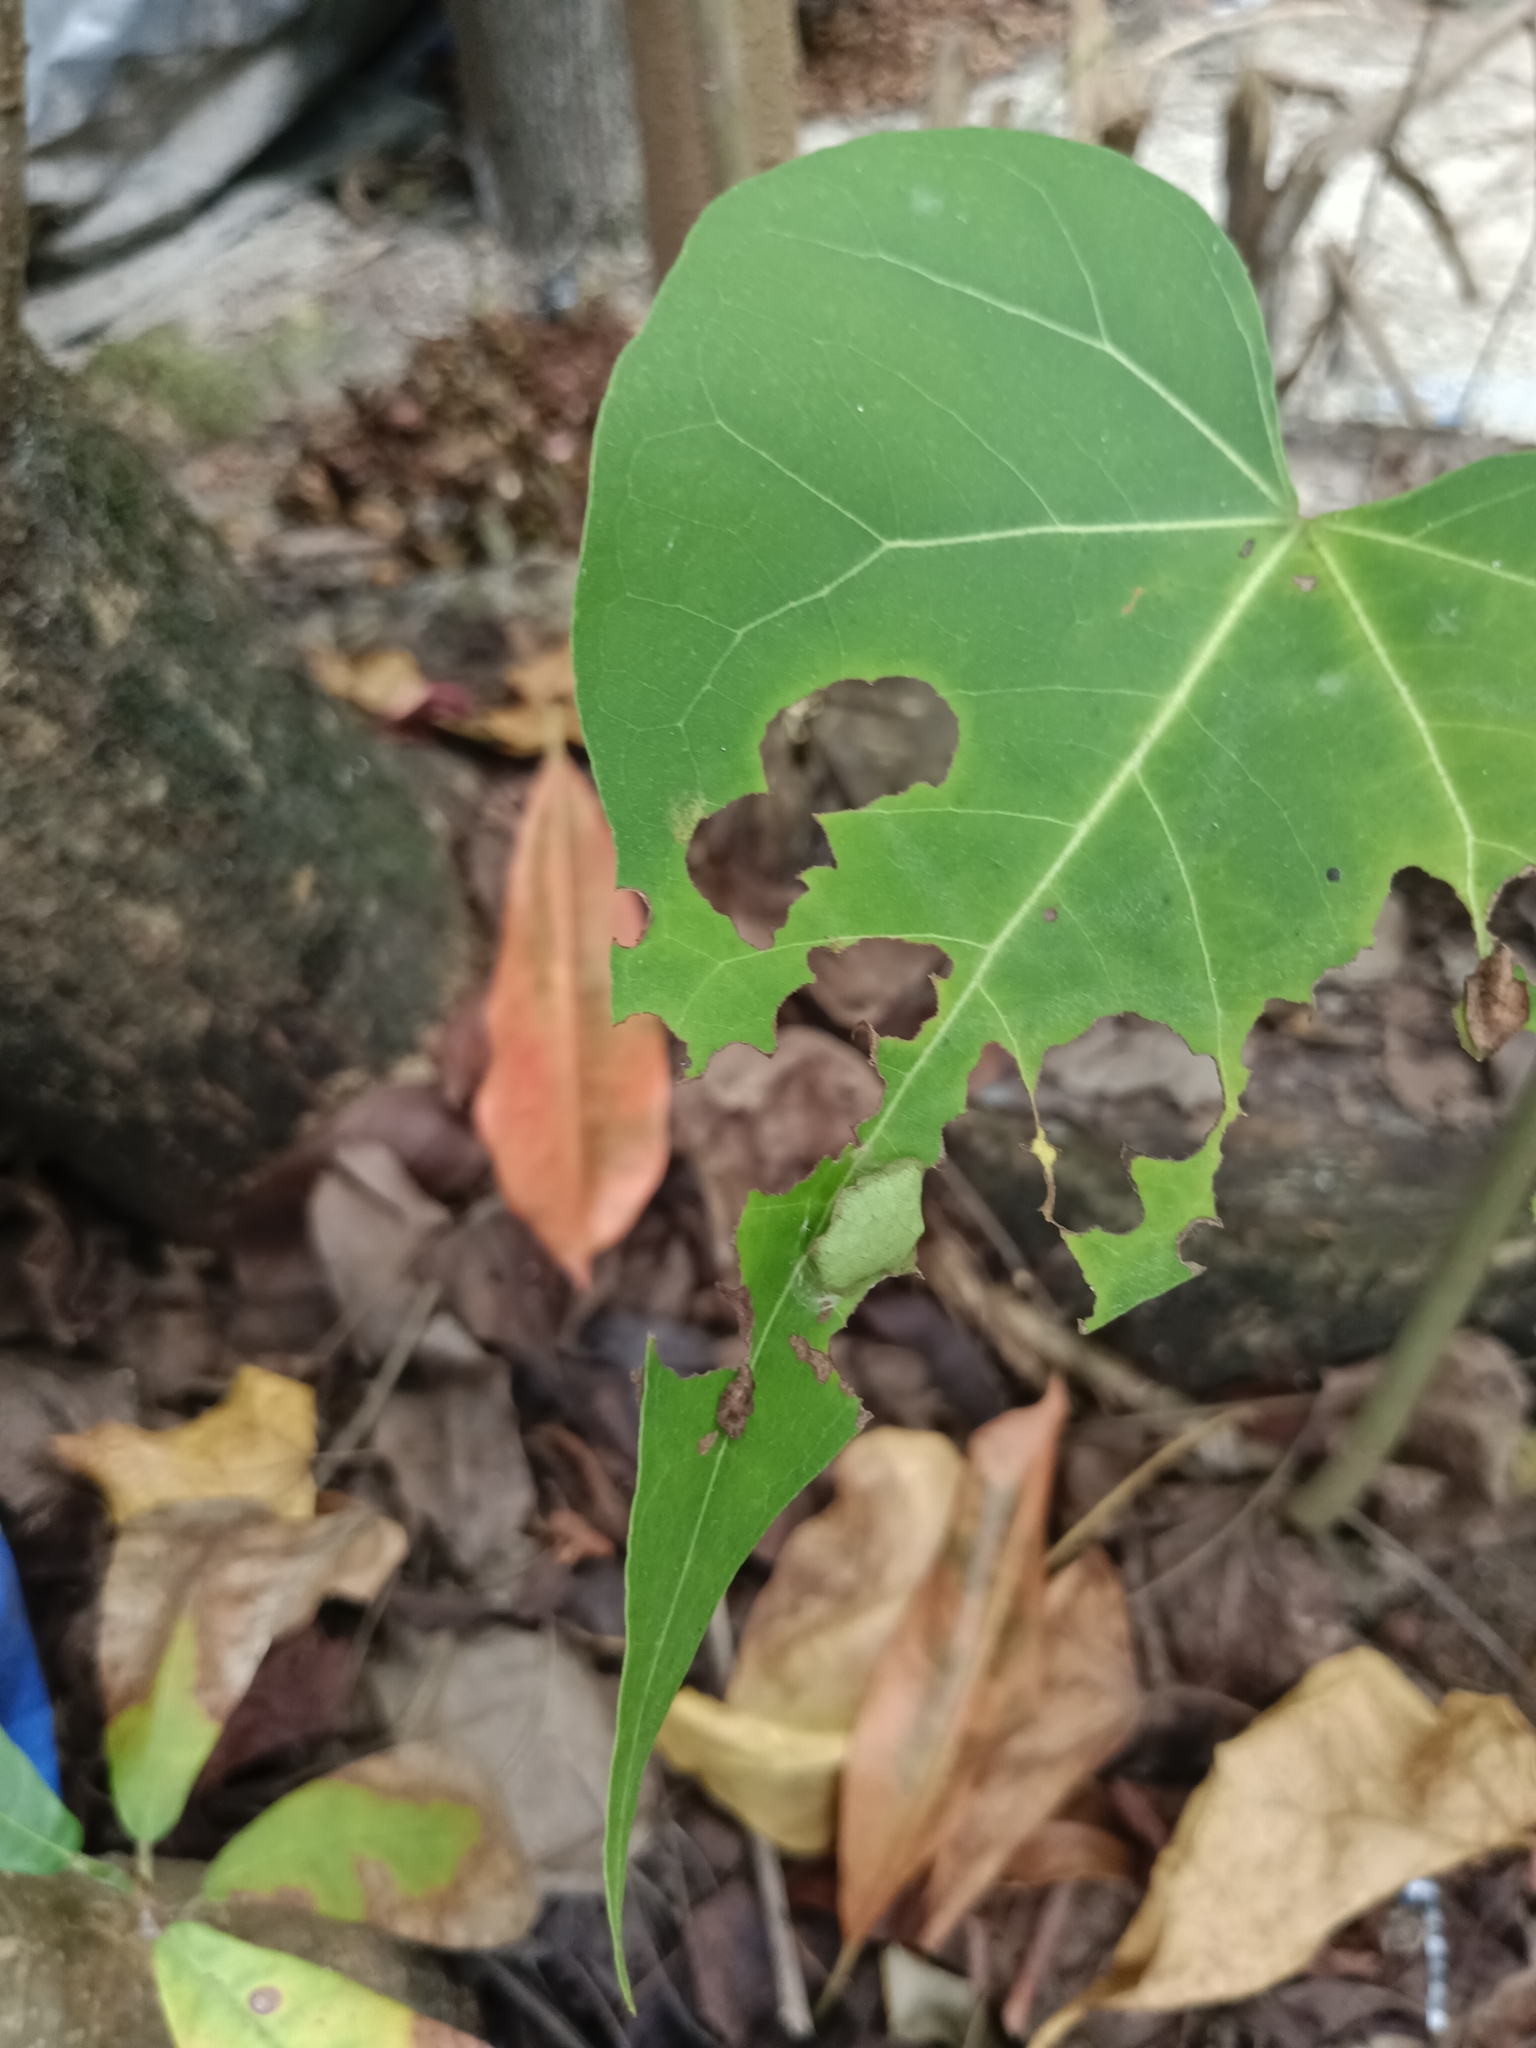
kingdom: Animalia
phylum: Arthropoda
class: Insecta
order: Lepidoptera
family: Hesperiidae
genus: Coladenia
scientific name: Coladenia
